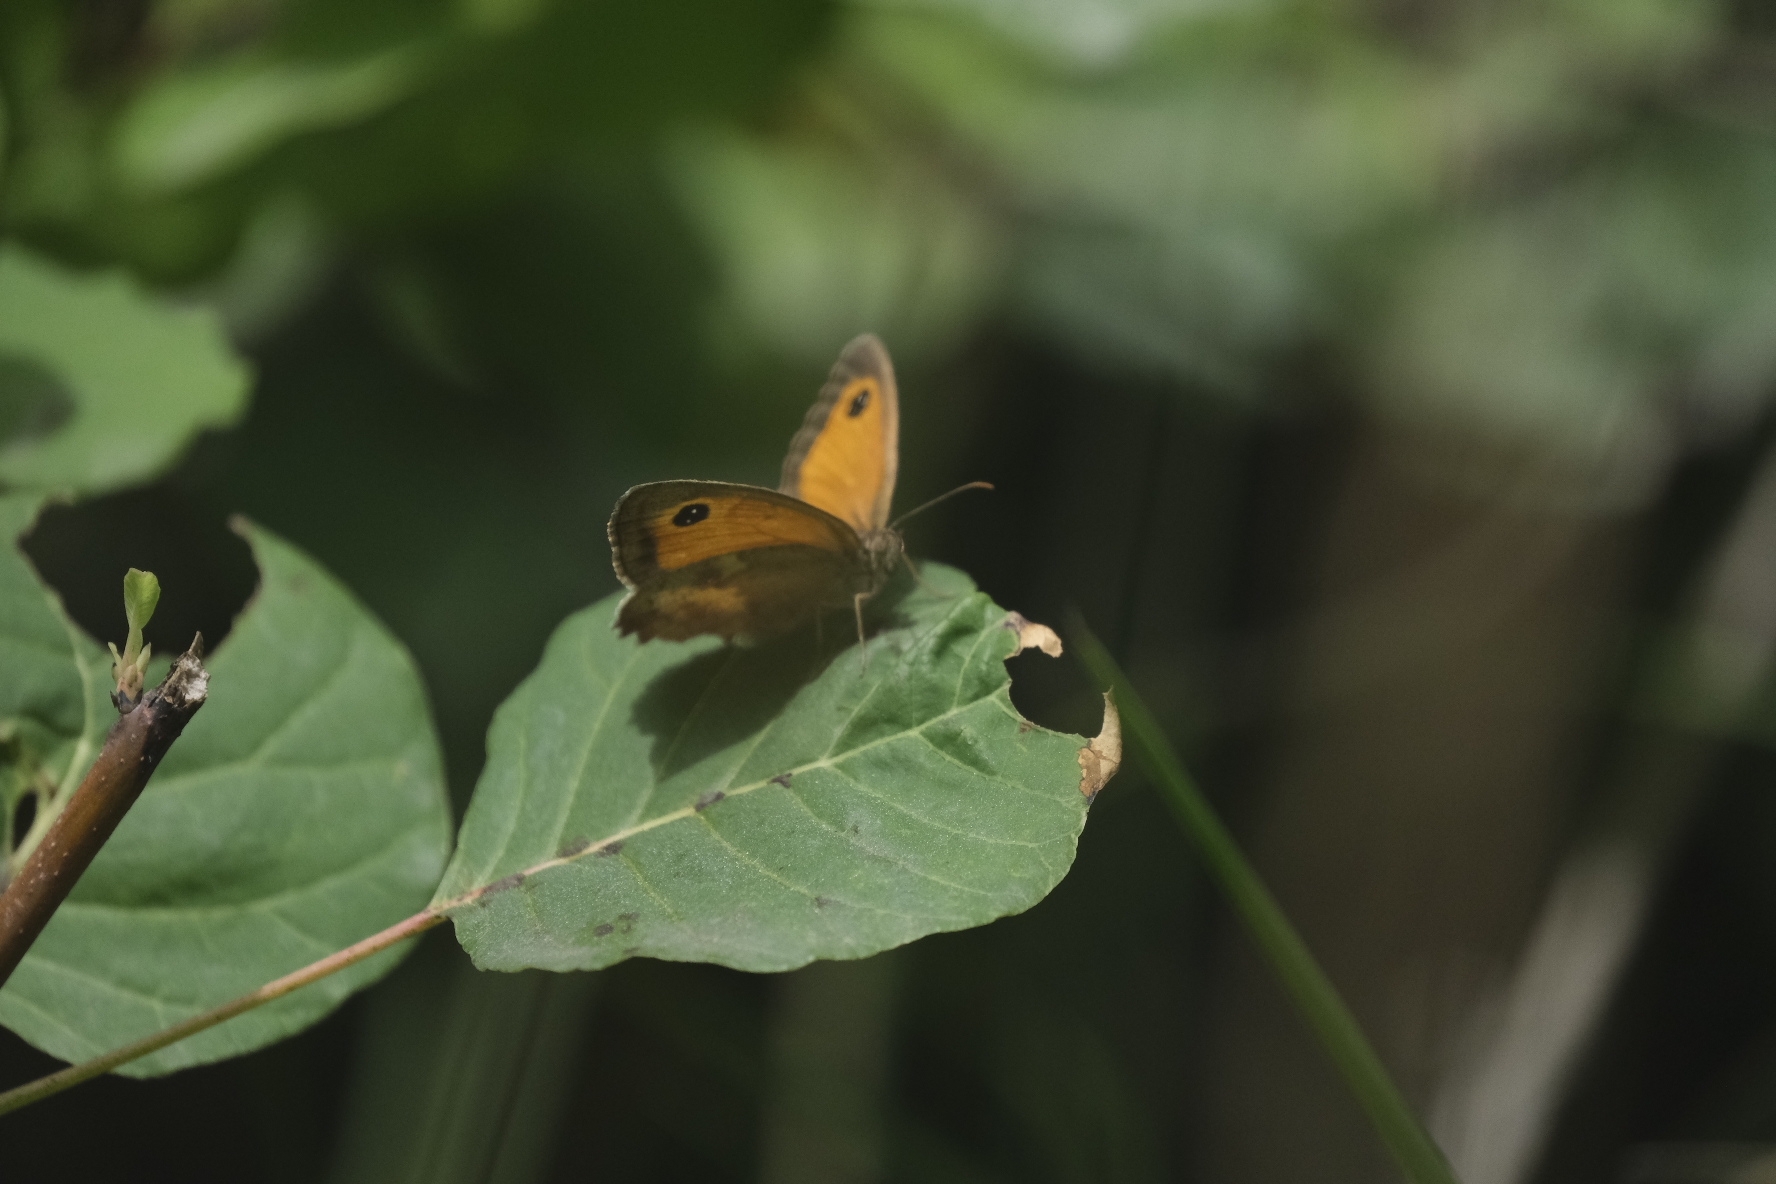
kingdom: Animalia
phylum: Arthropoda
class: Insecta
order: Lepidoptera
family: Nymphalidae
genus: Pyronia
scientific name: Pyronia tithonus
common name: Gatekeeper
